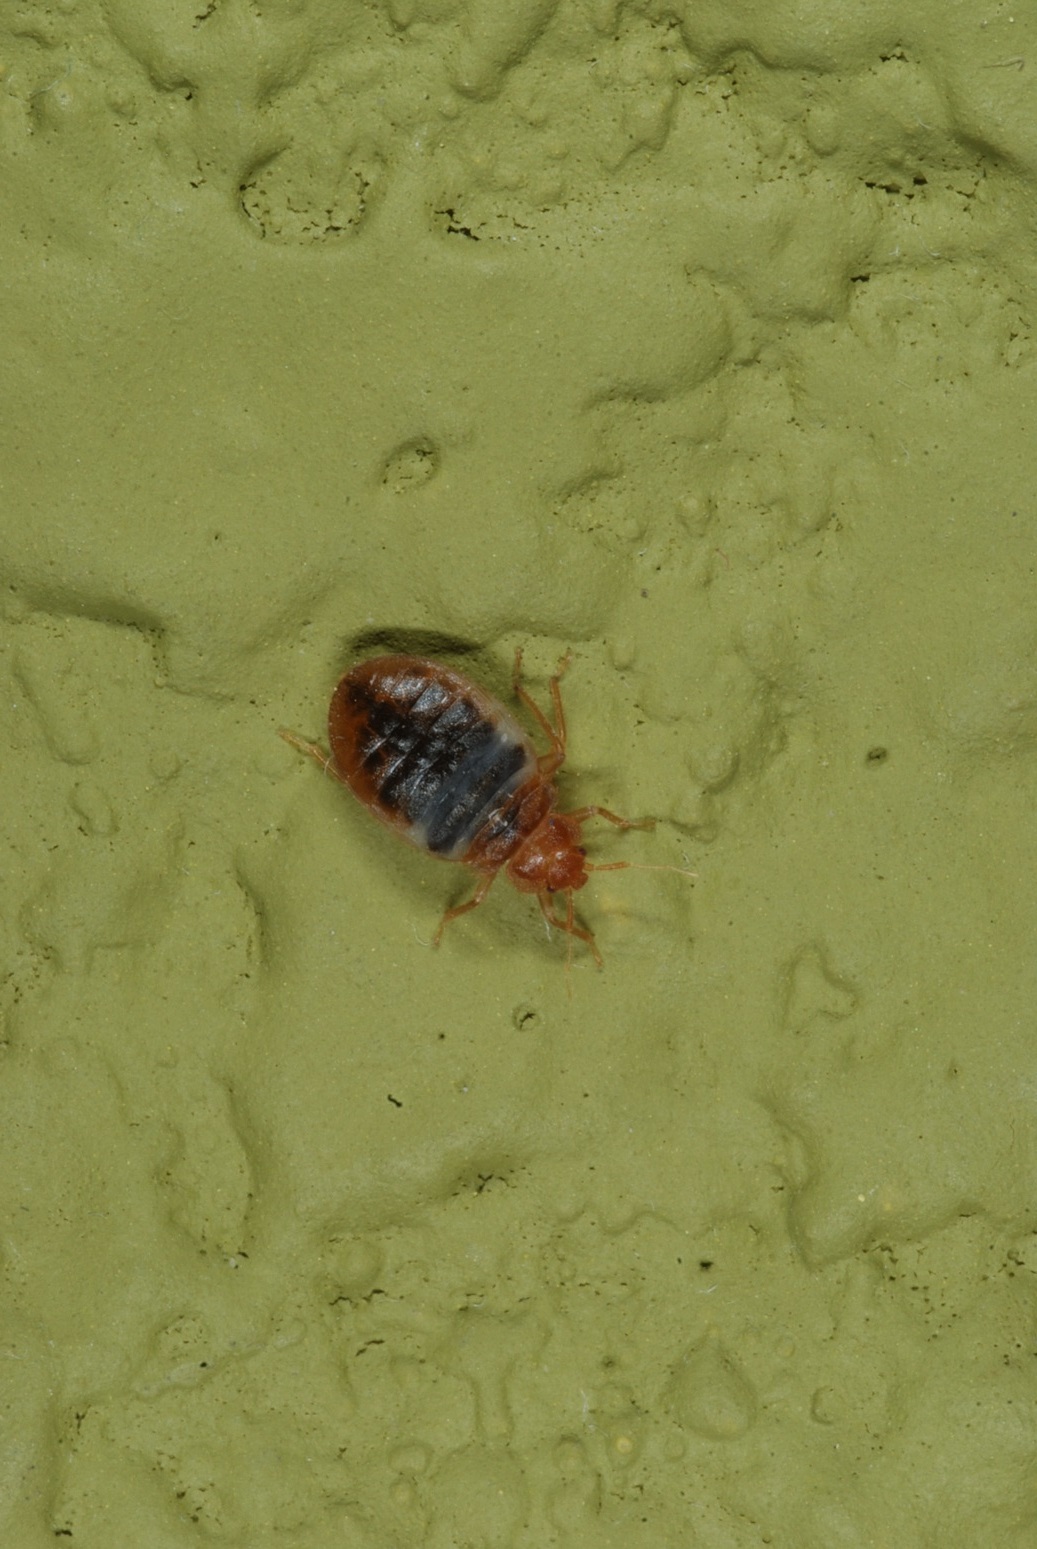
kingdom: Animalia
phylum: Arthropoda
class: Insecta
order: Hemiptera
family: Cimicidae
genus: Cimex
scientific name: Cimex lectularius
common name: Bed bug
